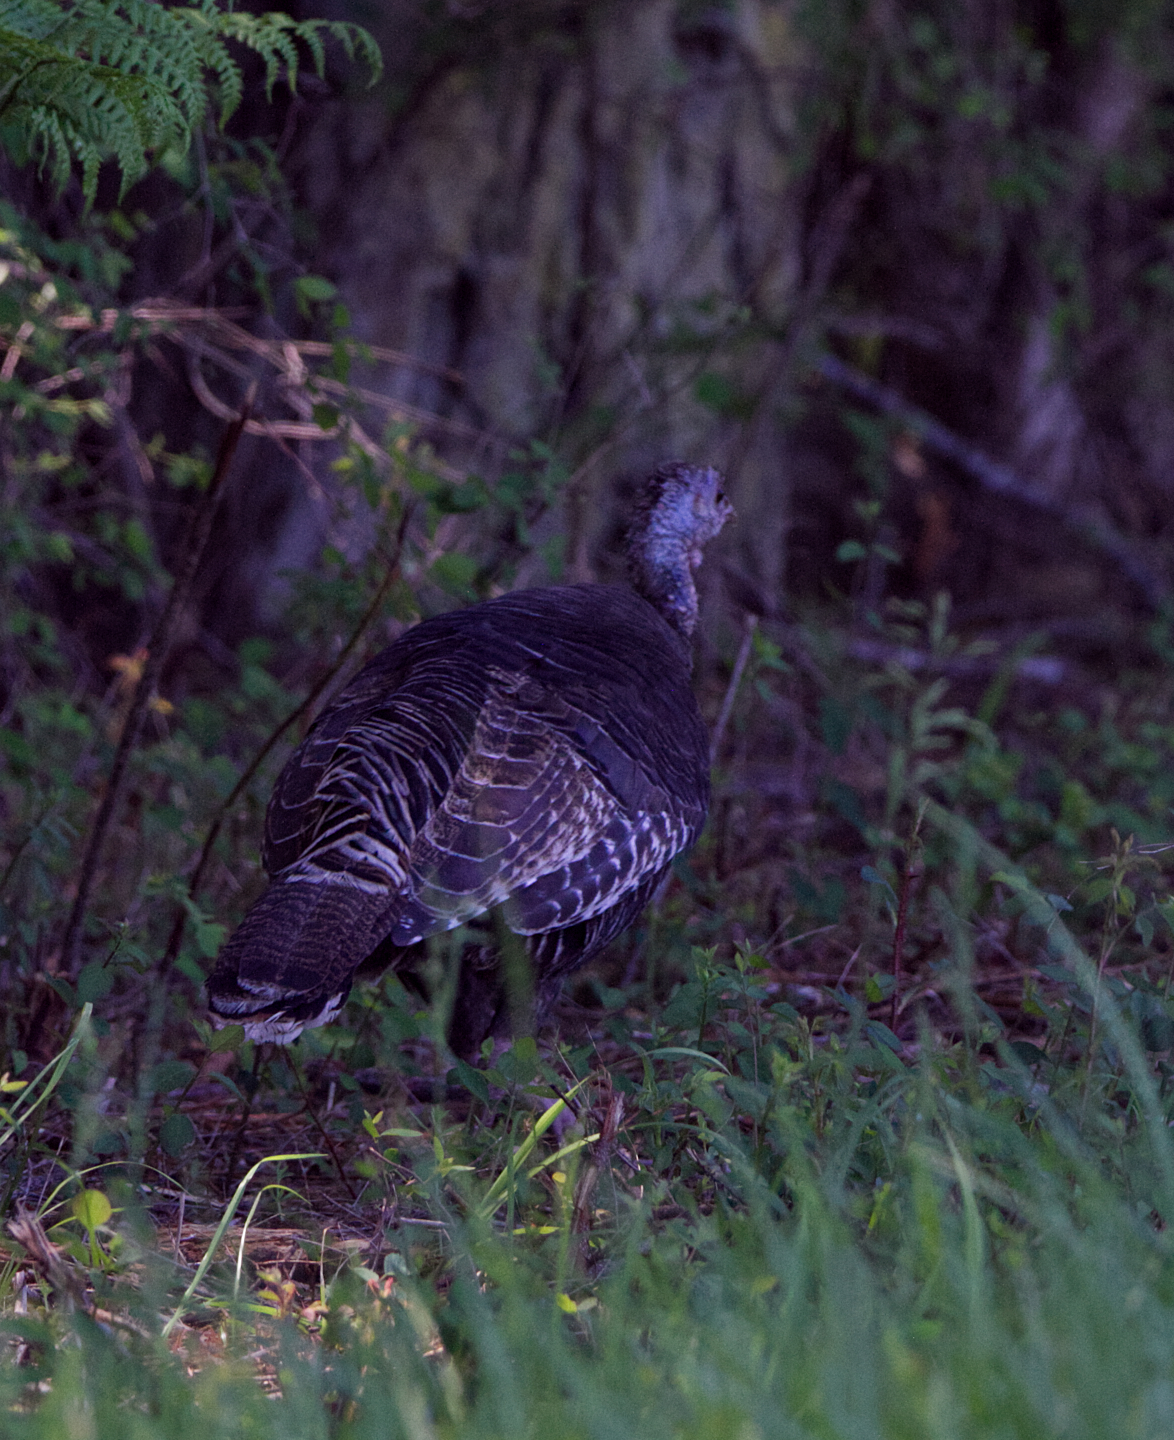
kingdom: Animalia
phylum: Chordata
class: Aves
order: Galliformes
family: Phasianidae
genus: Meleagris
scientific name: Meleagris gallopavo
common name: Wild turkey
